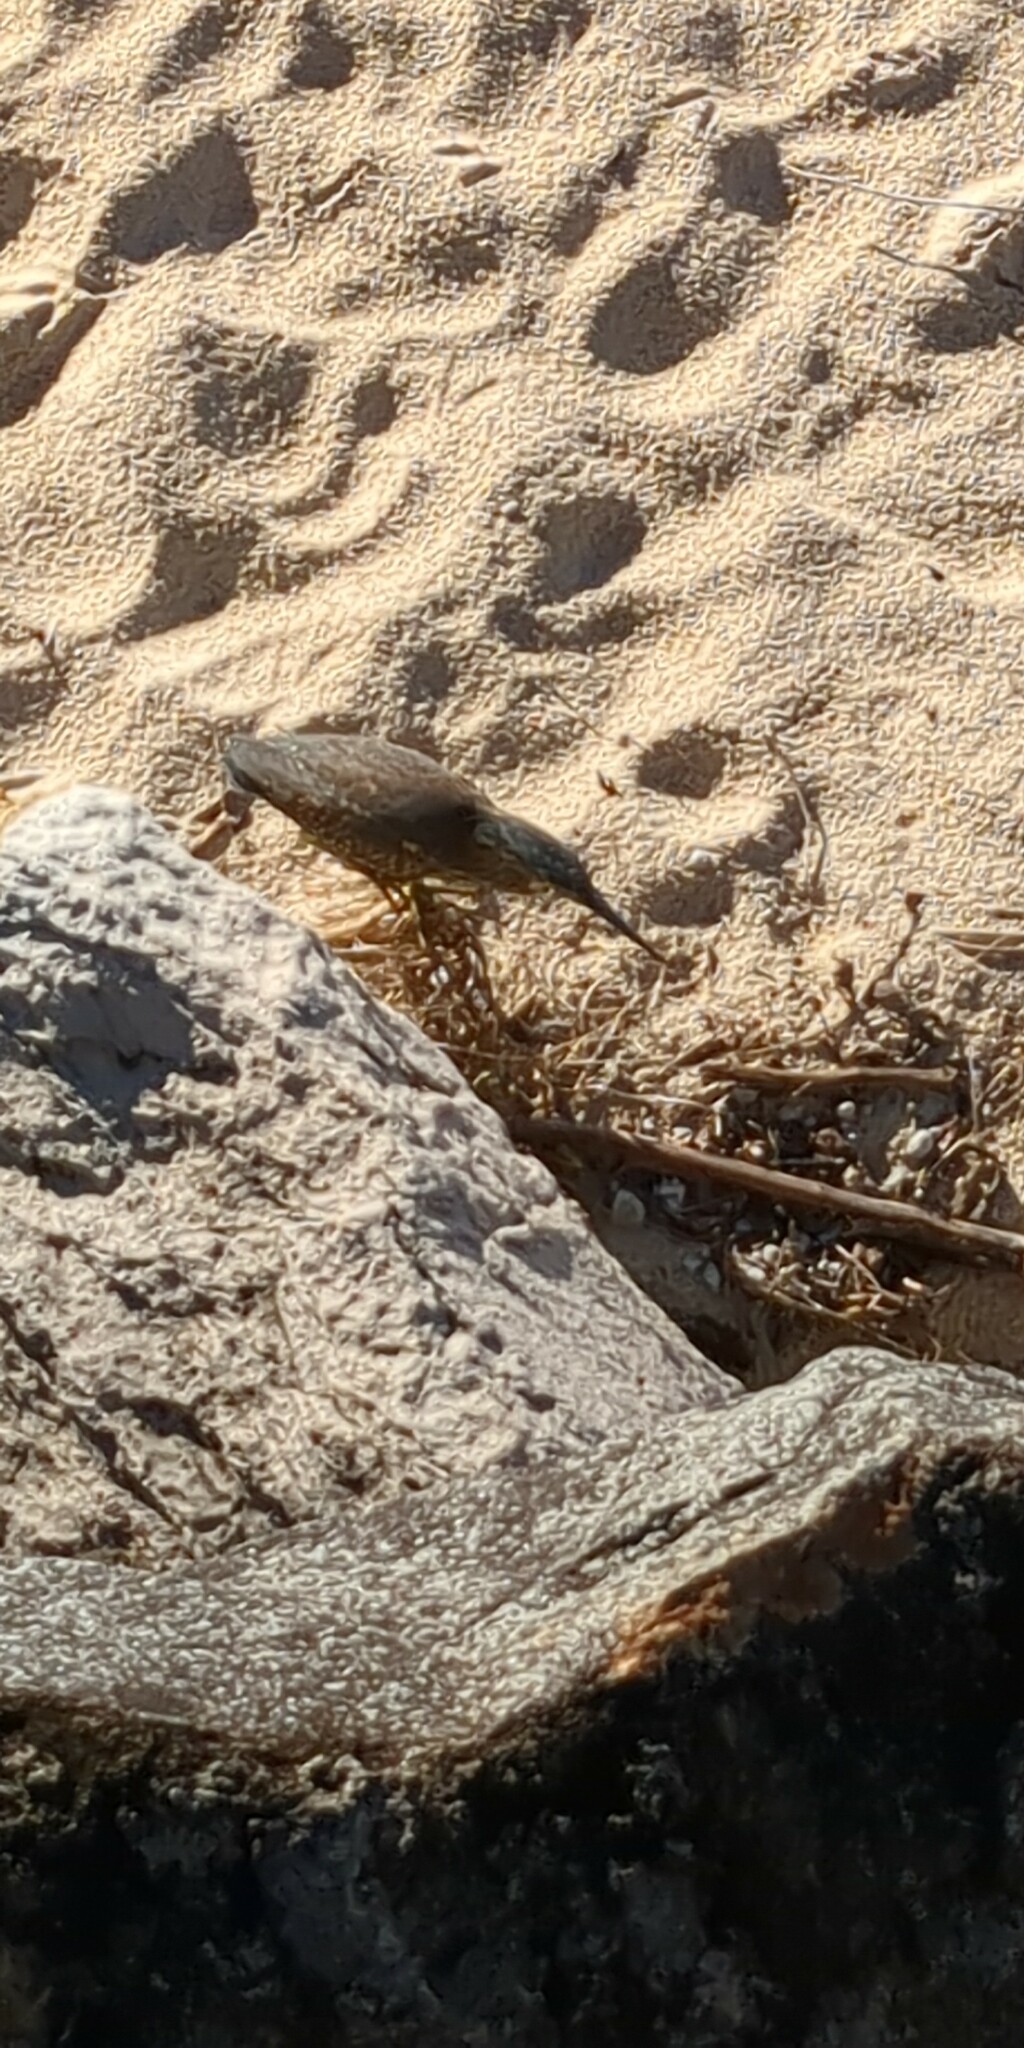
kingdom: Animalia
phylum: Chordata
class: Aves
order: Pelecaniformes
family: Ardeidae
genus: Butorides
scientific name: Butorides striata
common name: Striated heron
